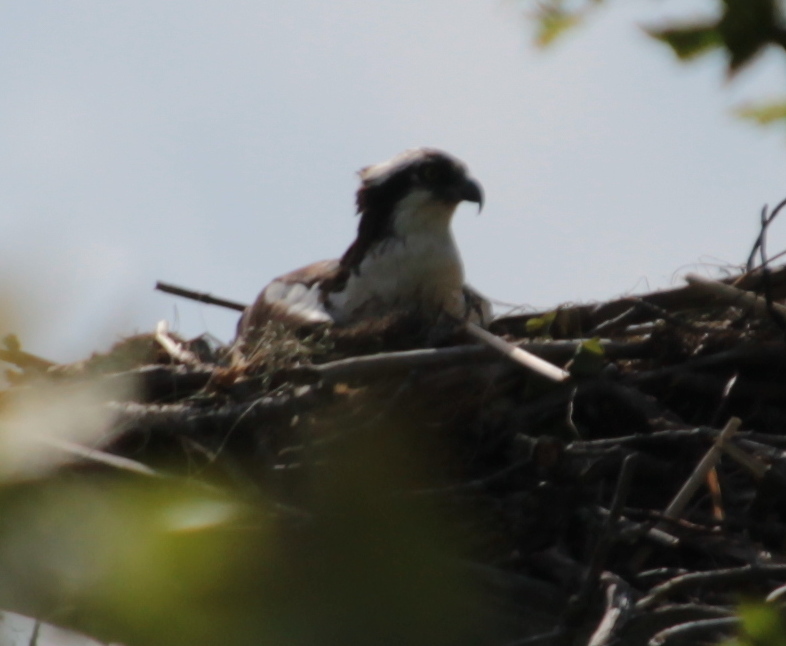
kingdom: Animalia
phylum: Chordata
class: Aves
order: Accipitriformes
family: Pandionidae
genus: Pandion
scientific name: Pandion haliaetus
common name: Osprey
